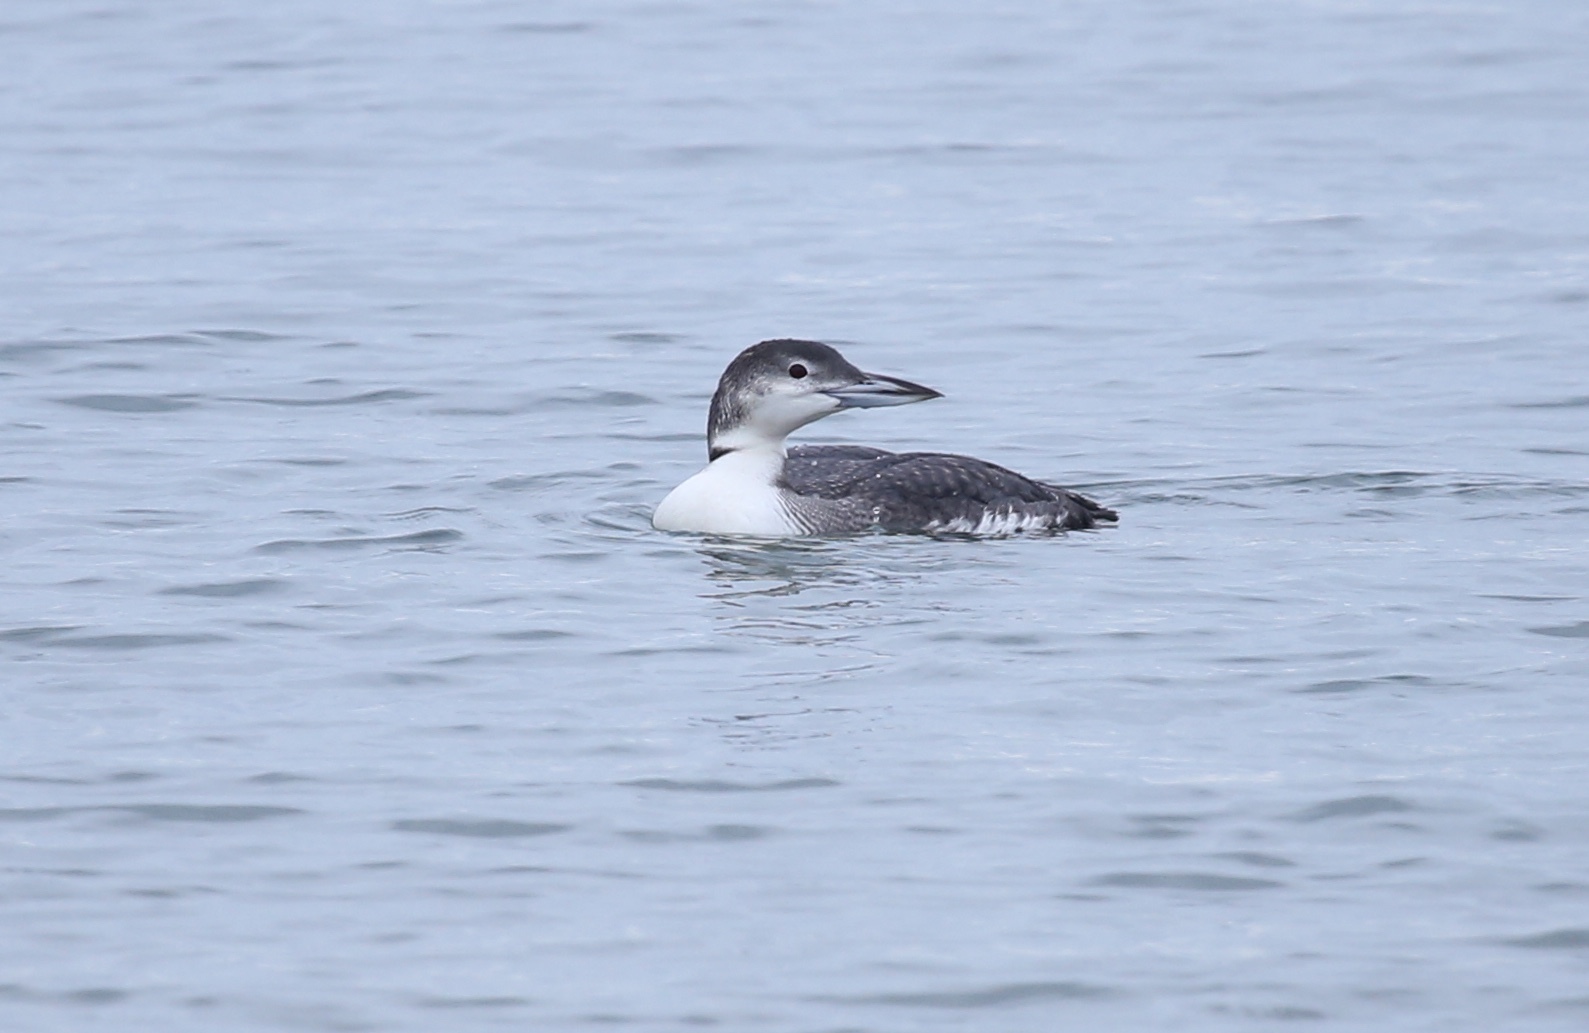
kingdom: Animalia
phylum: Chordata
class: Aves
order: Gaviiformes
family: Gaviidae
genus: Gavia
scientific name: Gavia immer
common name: Common loon
